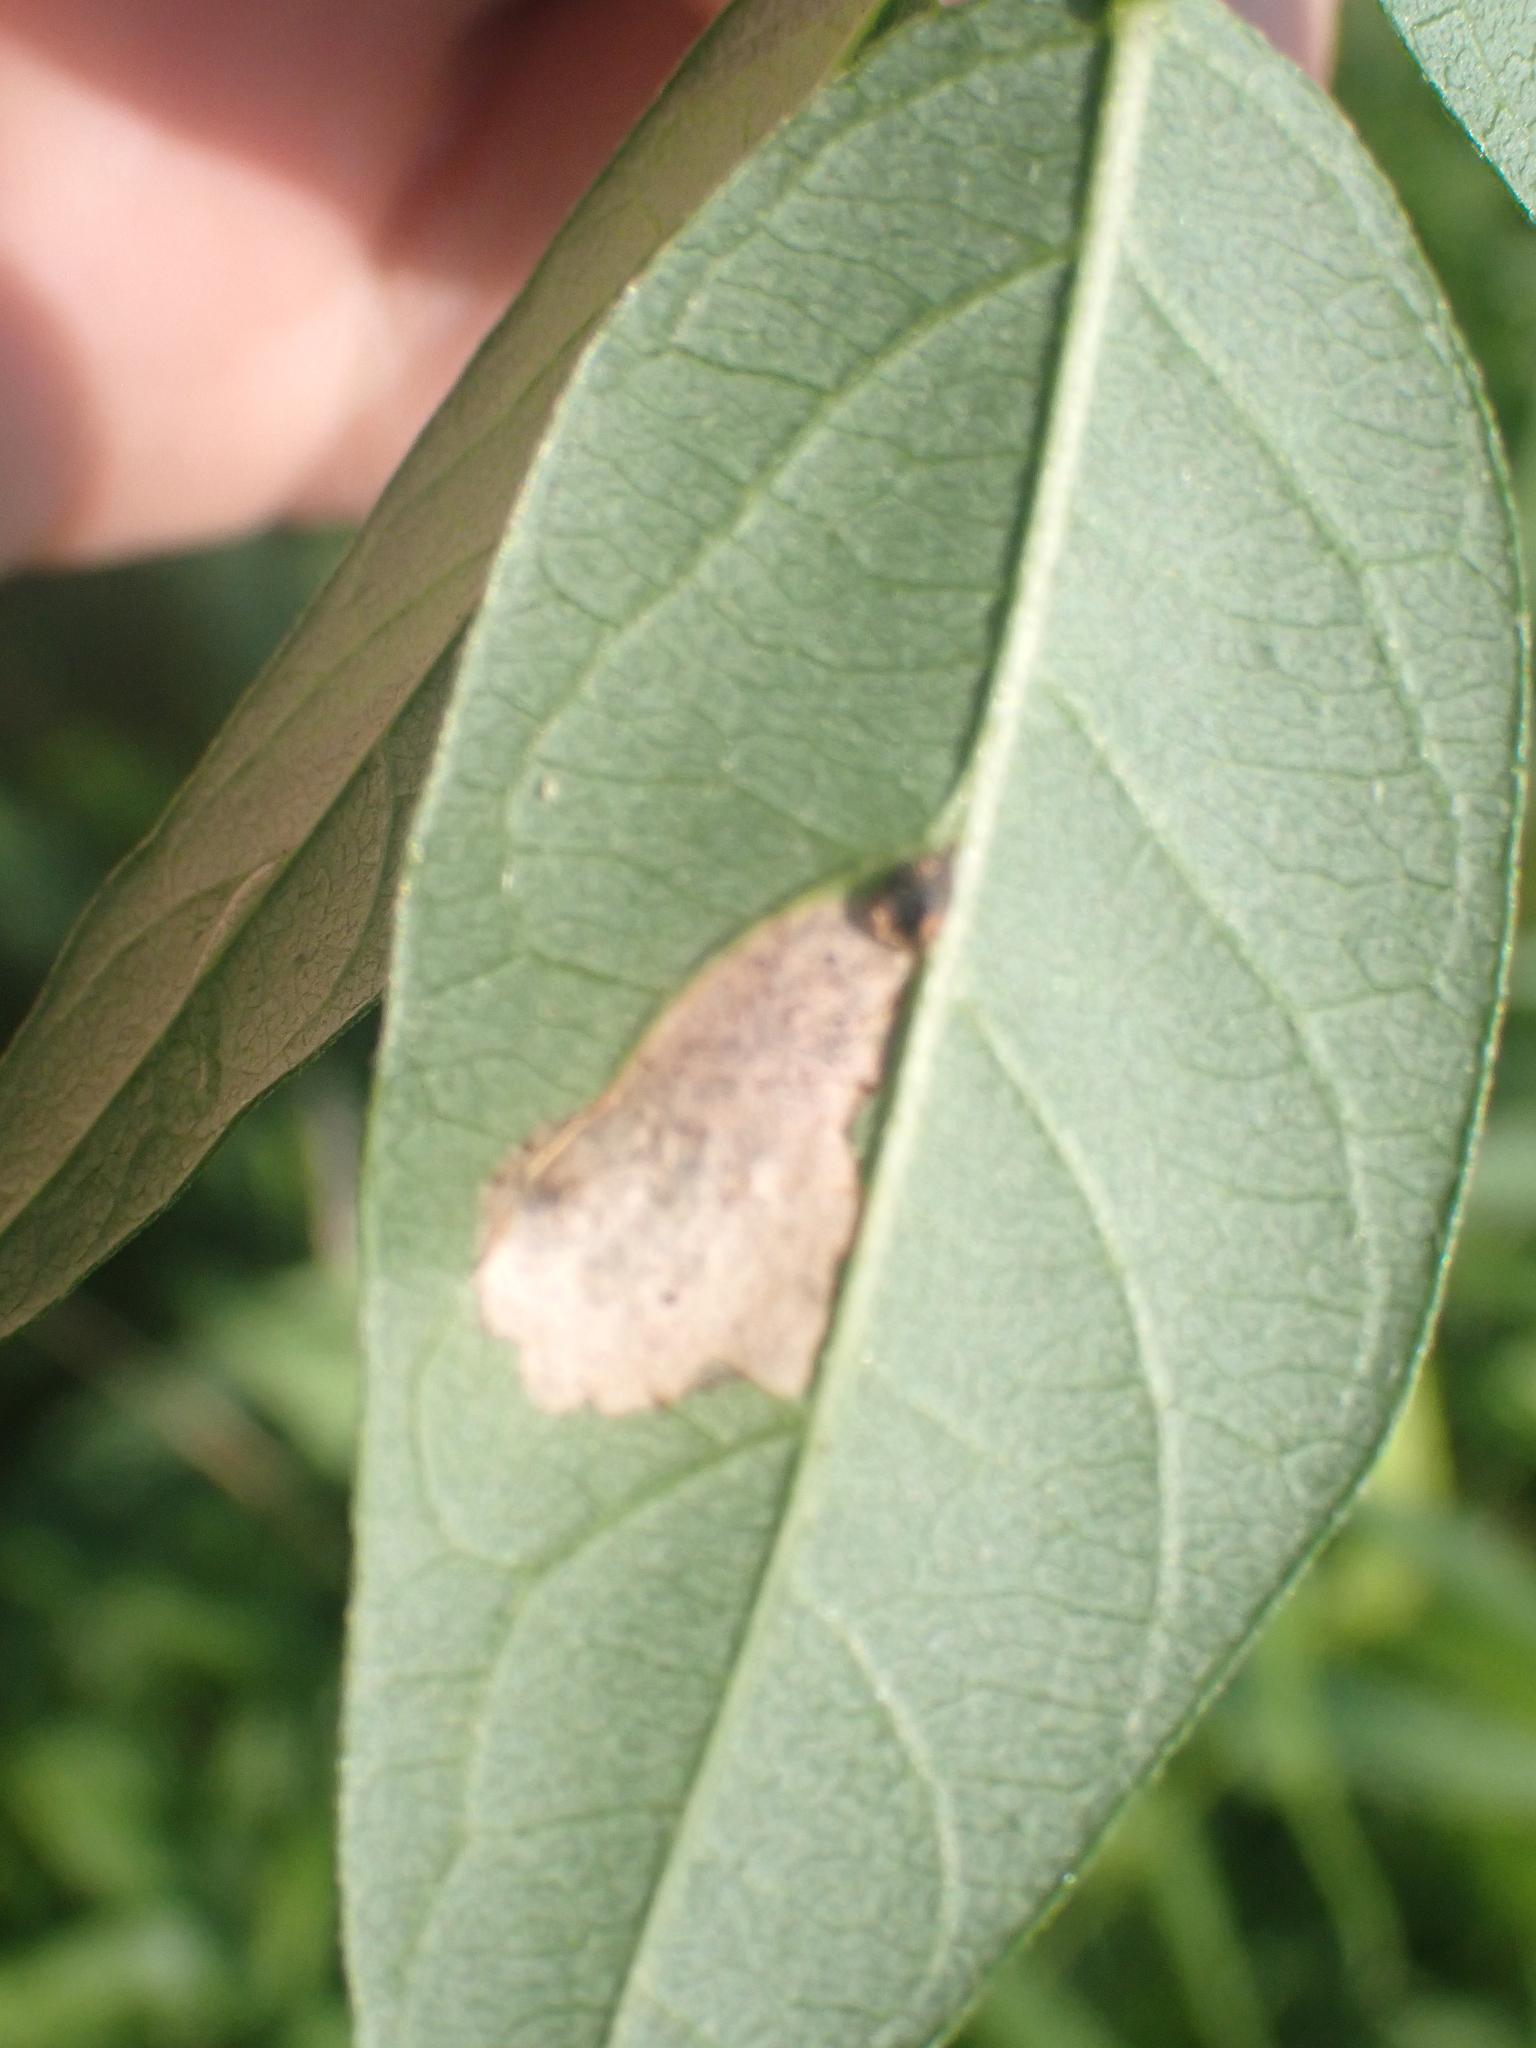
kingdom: Animalia
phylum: Arthropoda
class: Insecta
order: Coleoptera
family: Chrysomelidae
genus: Odontota
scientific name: Odontota scapularis
